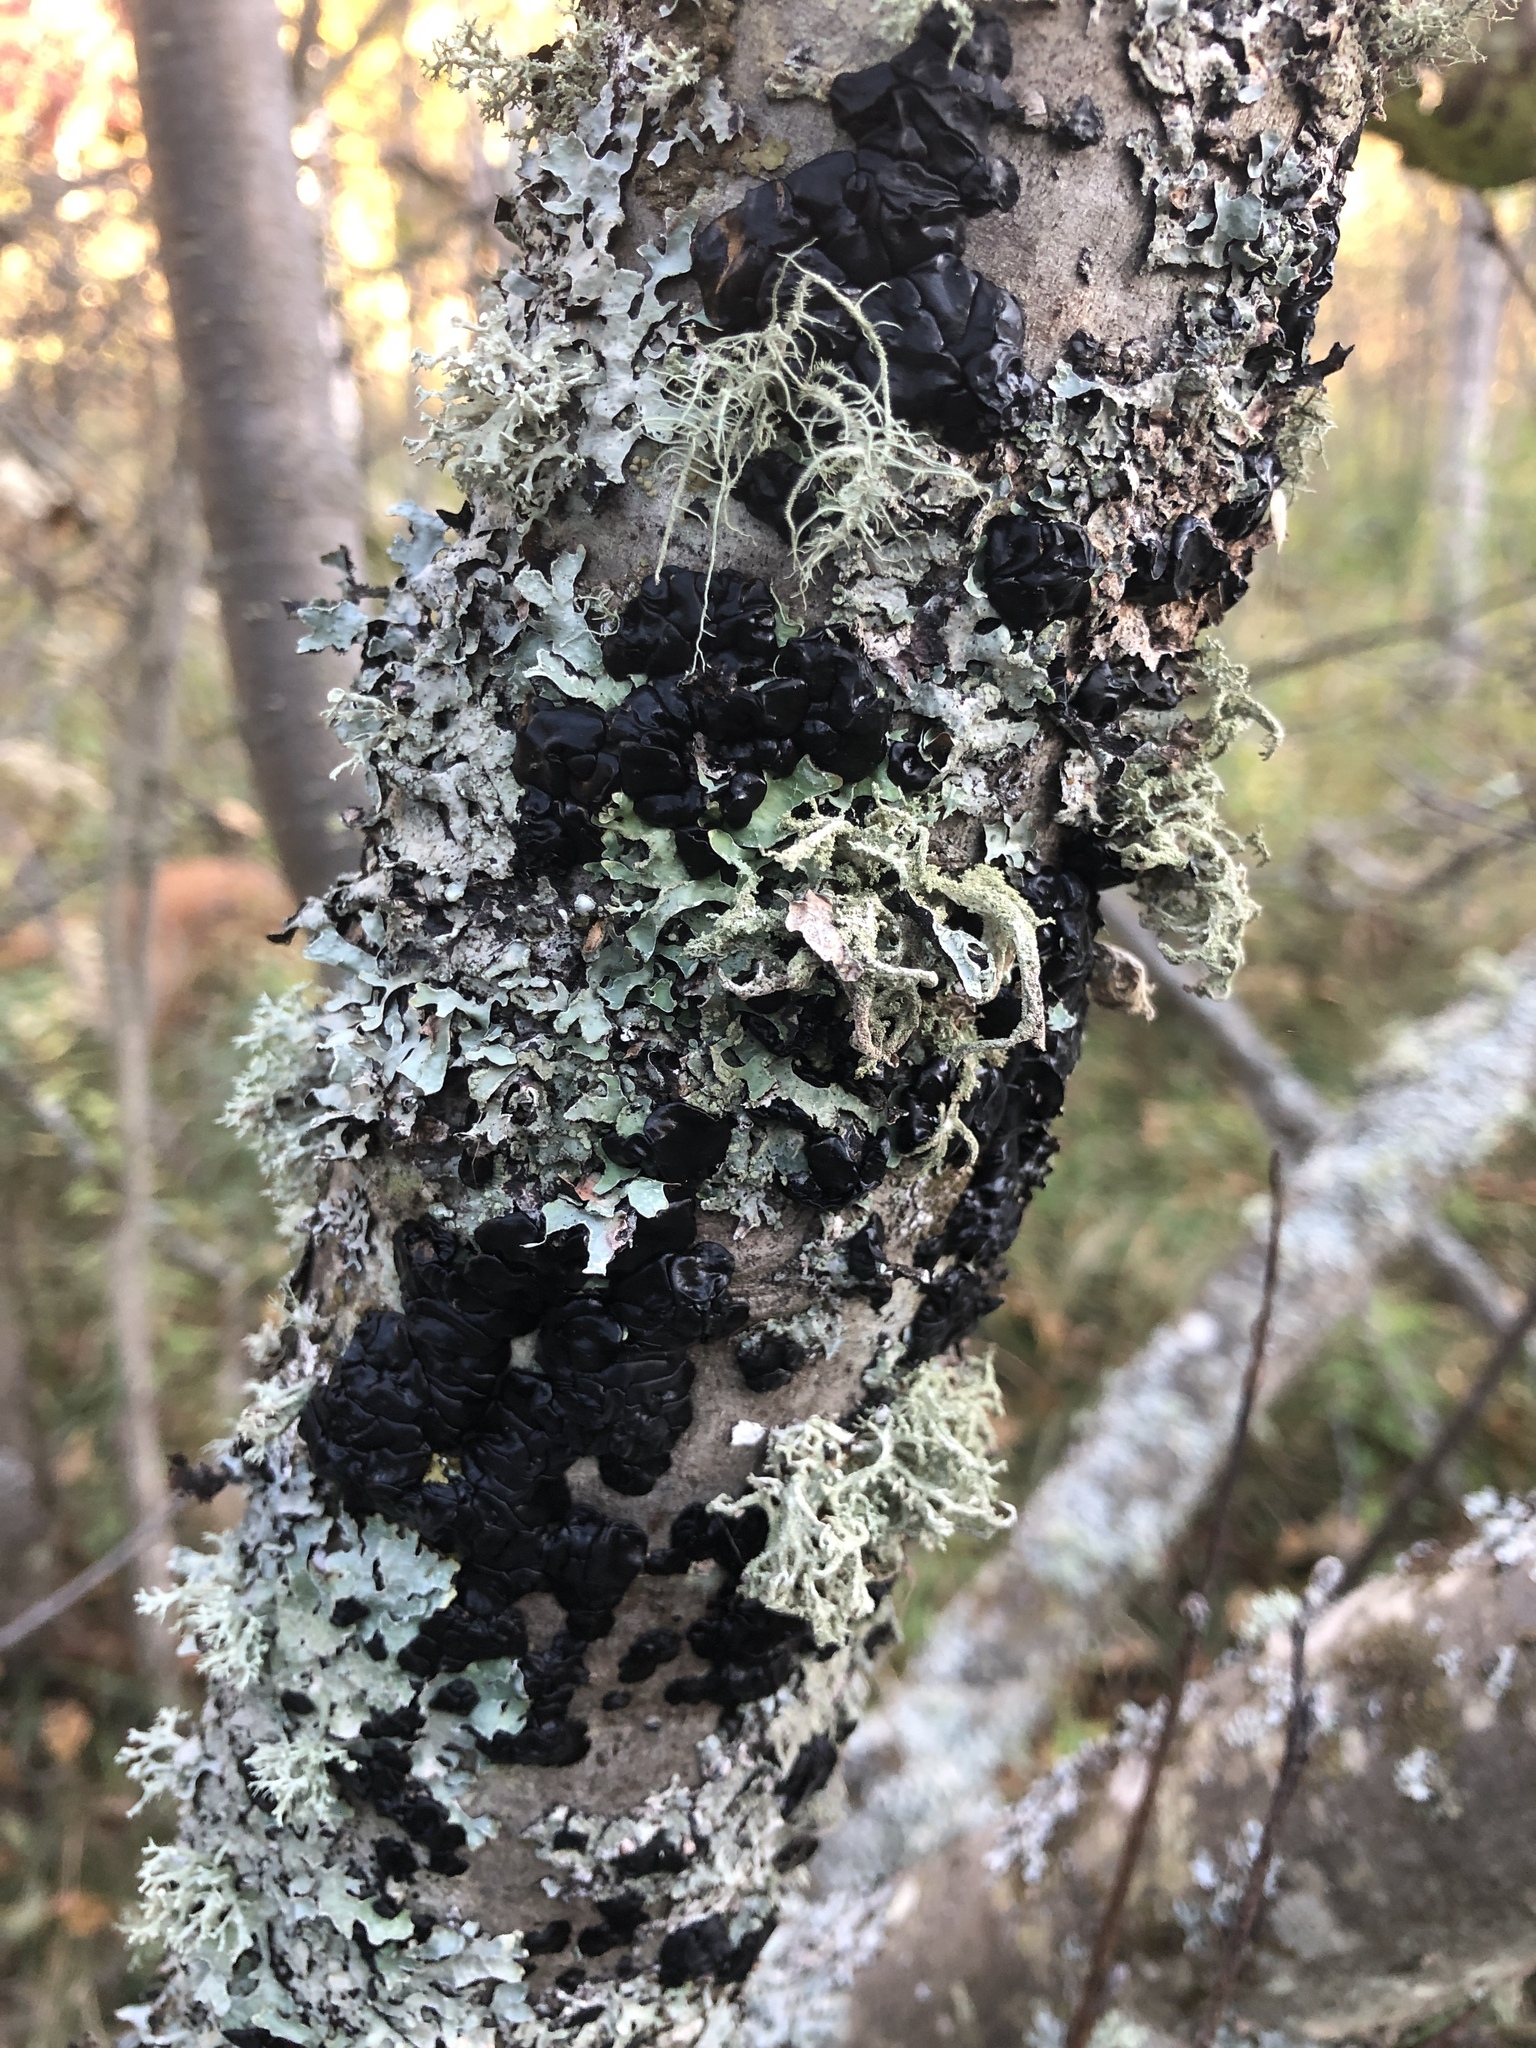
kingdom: Fungi
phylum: Basidiomycota
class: Agaricomycetes
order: Auriculariales
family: Auriculariaceae
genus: Exidia
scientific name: Exidia glandulosa
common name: Witches' butter
